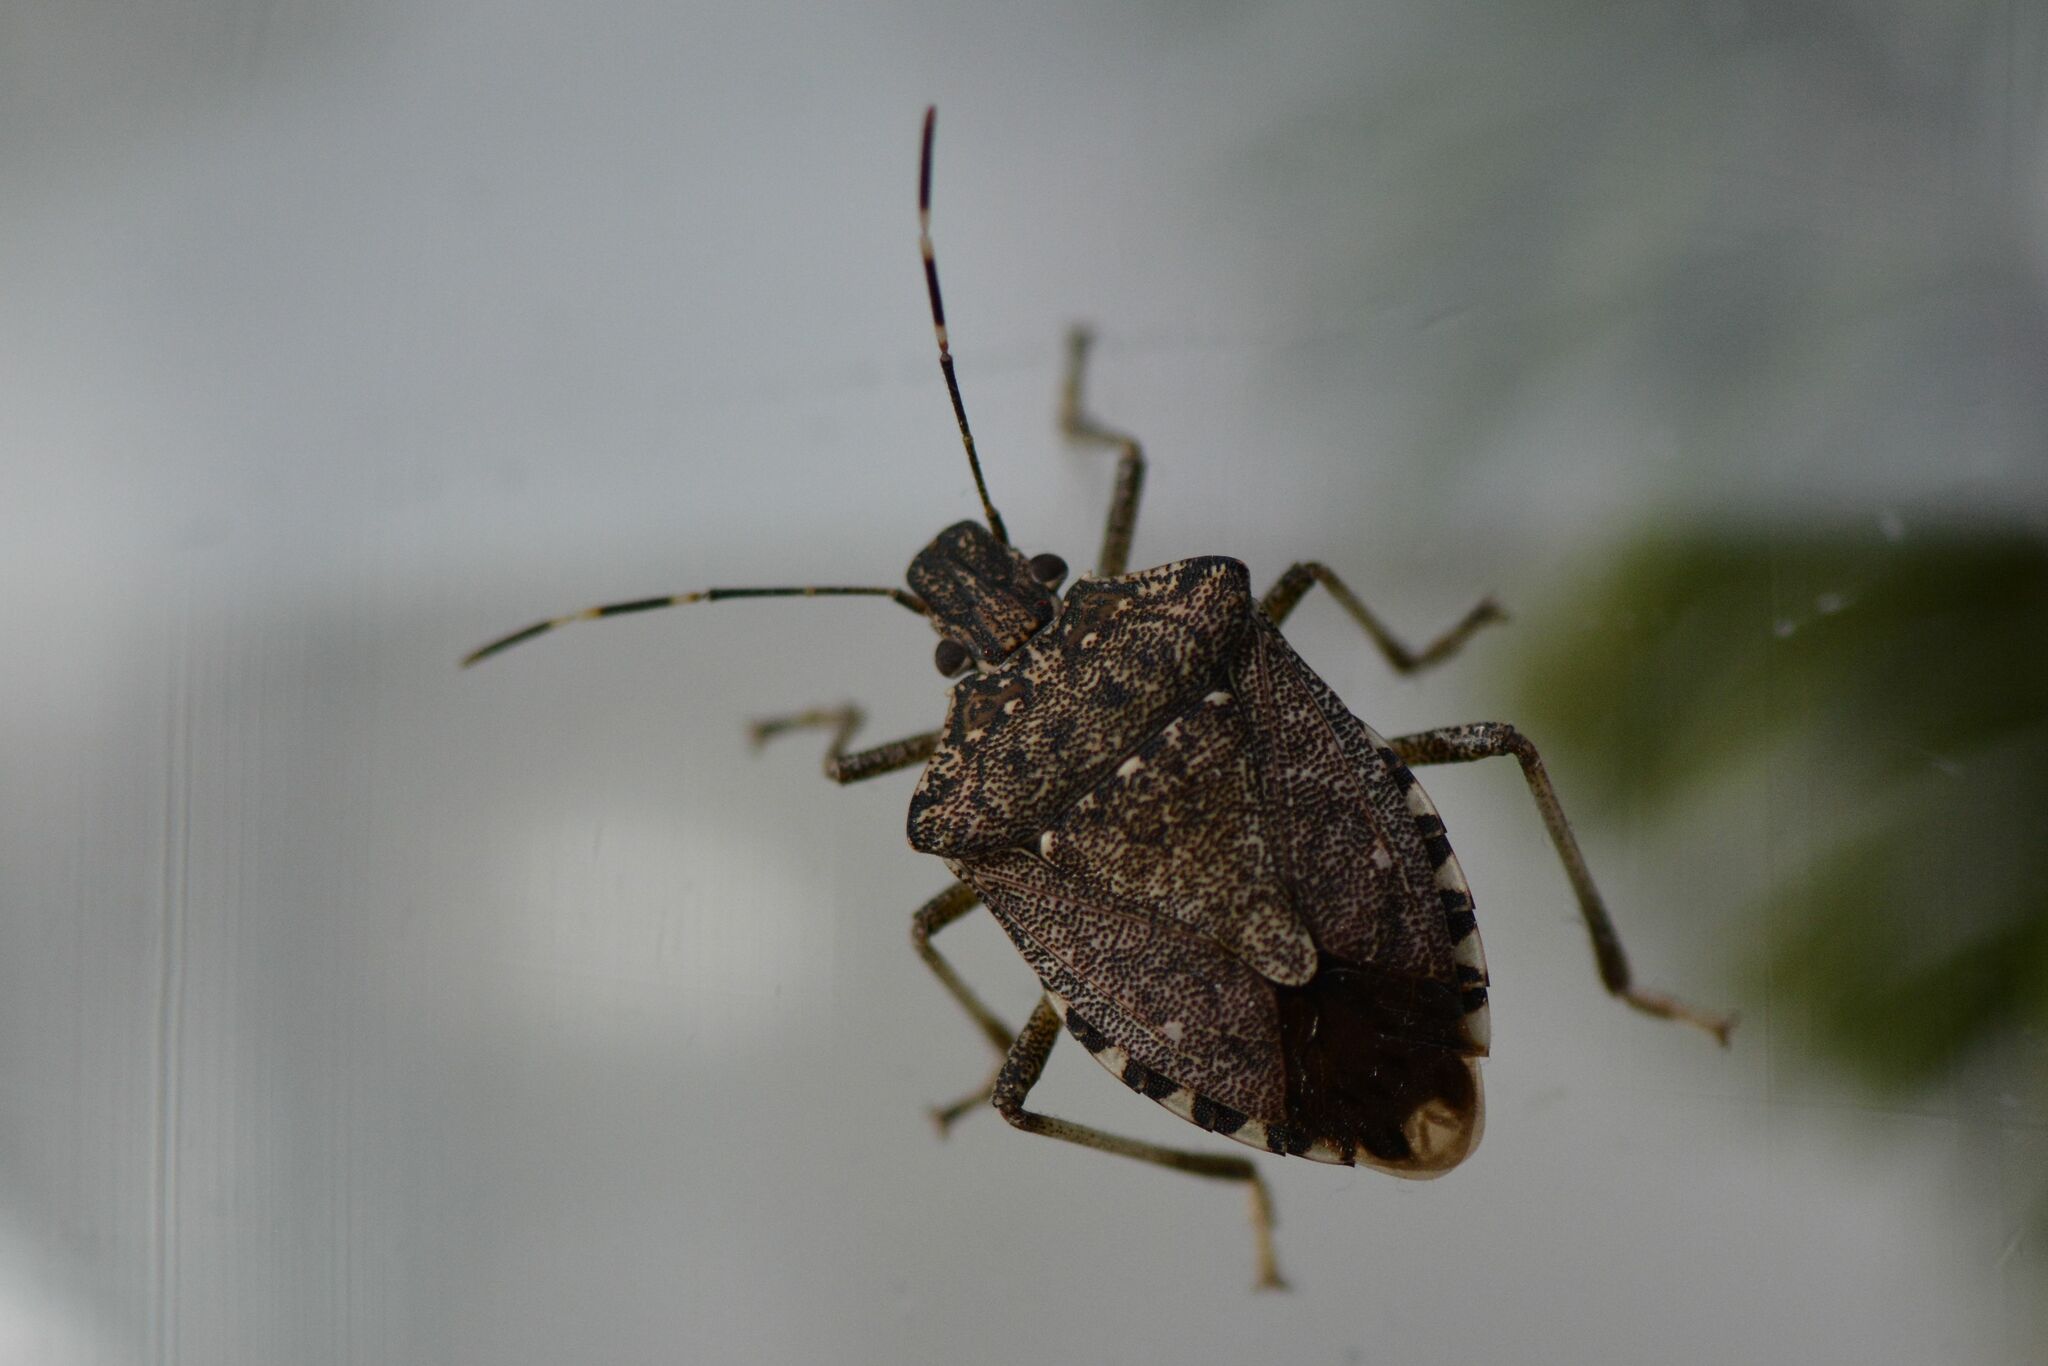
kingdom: Animalia
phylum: Arthropoda
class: Insecta
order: Hemiptera
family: Pentatomidae
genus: Halyomorpha
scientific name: Halyomorpha halys
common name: Brown marmorated stink bug
